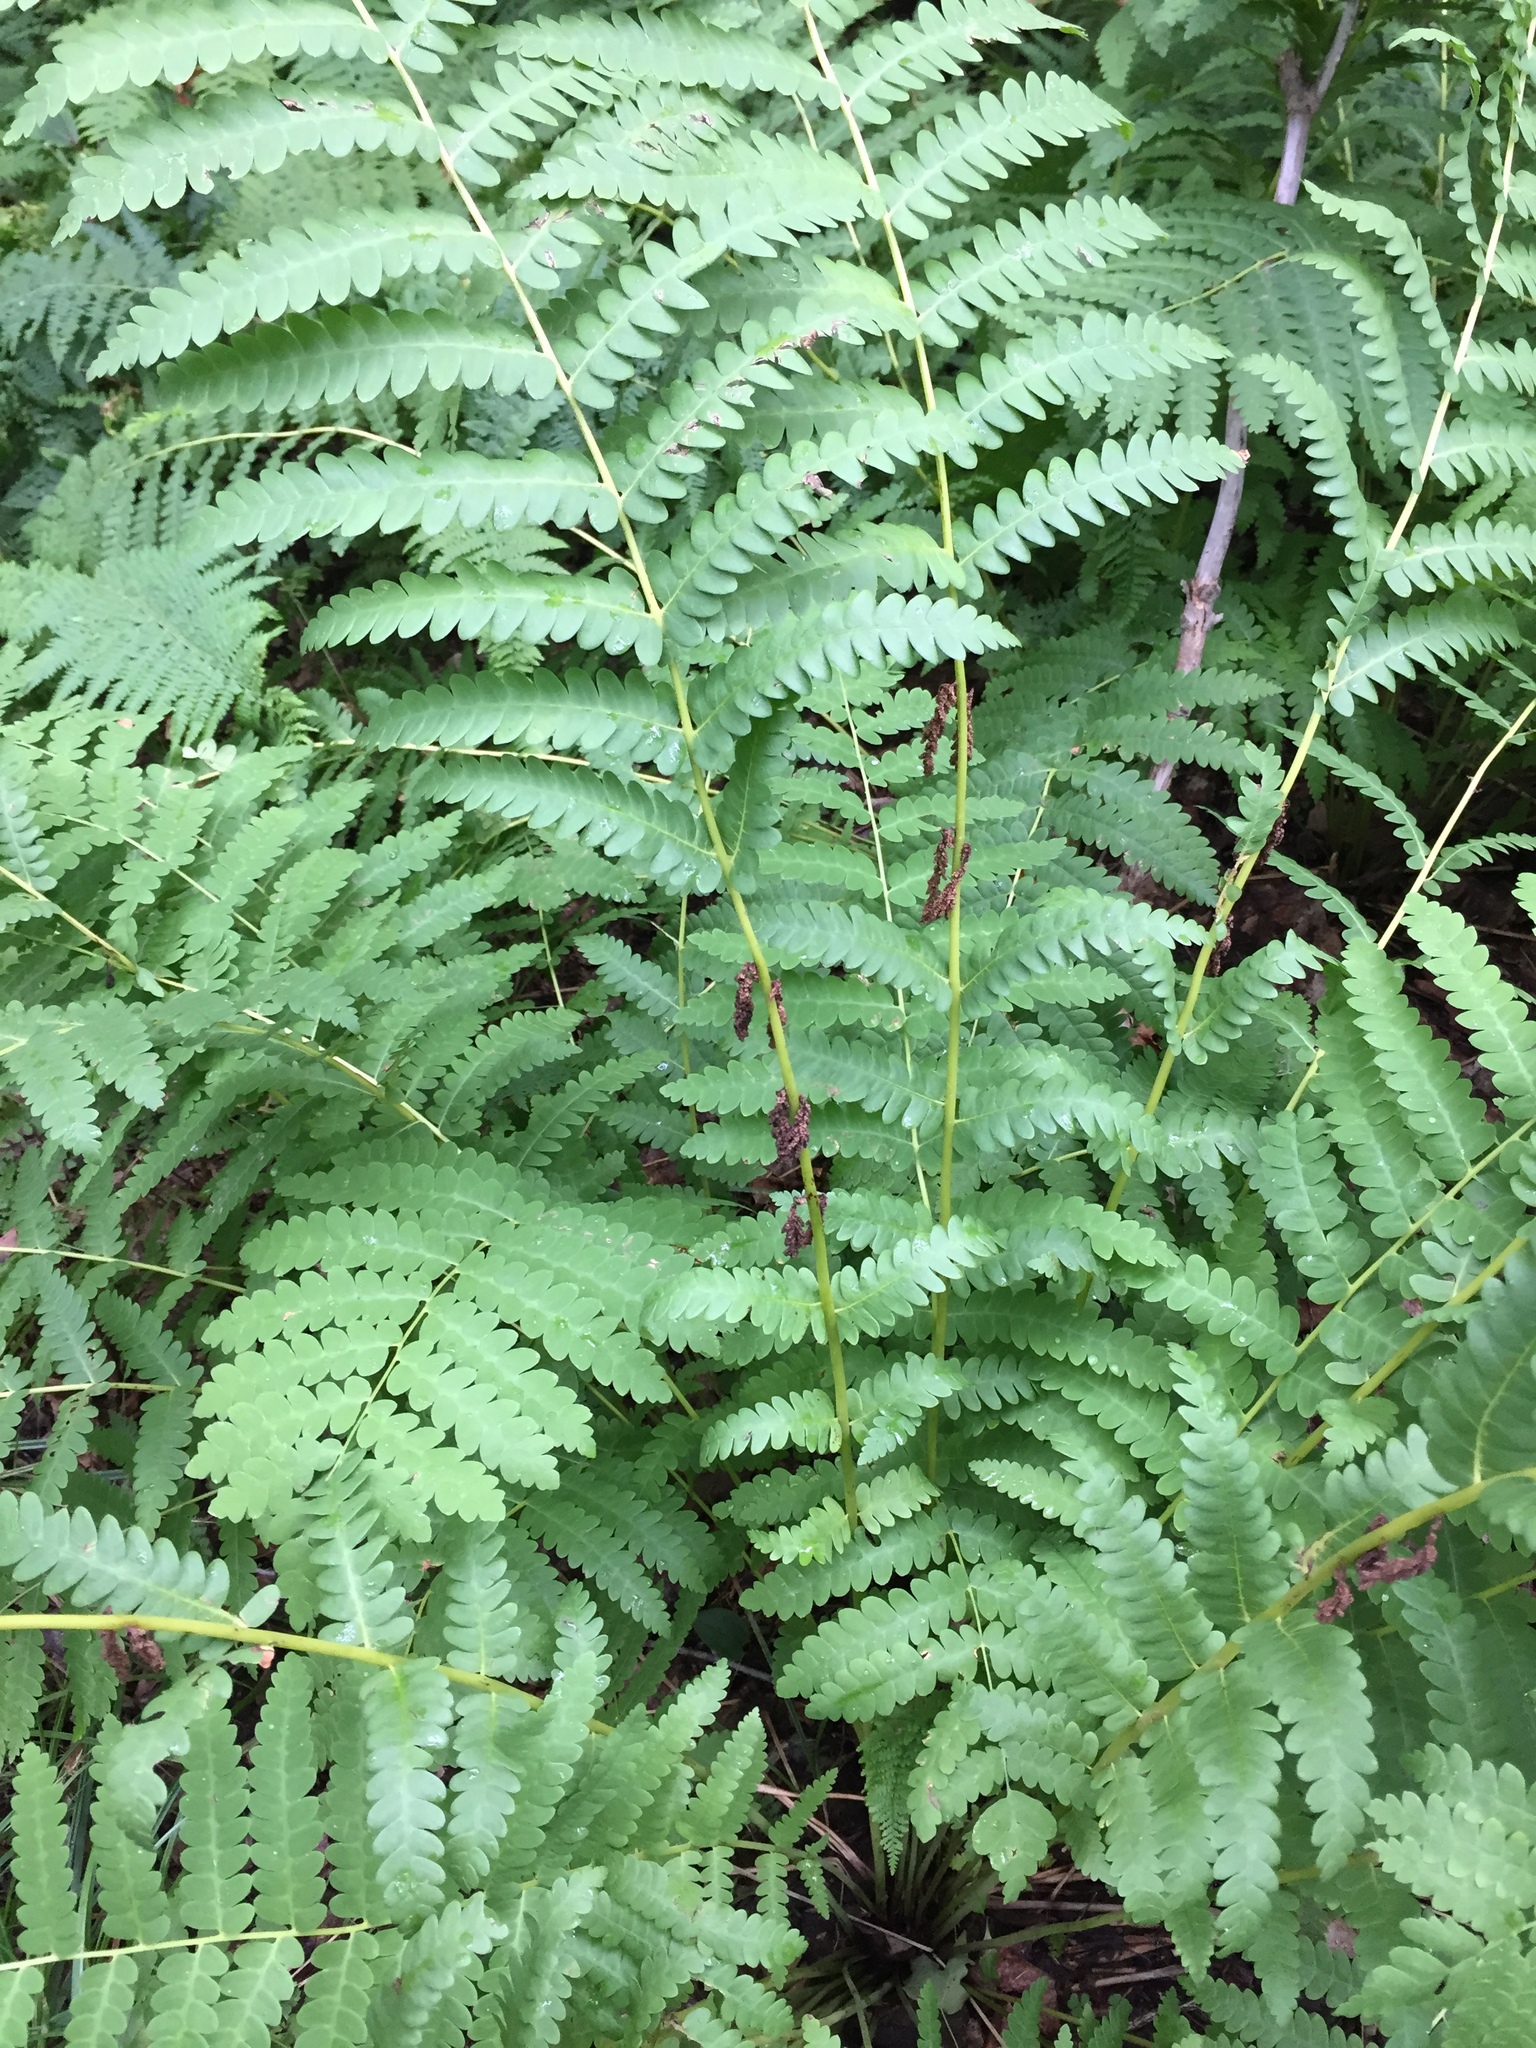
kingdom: Plantae
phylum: Tracheophyta
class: Polypodiopsida
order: Osmundales
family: Osmundaceae
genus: Claytosmunda
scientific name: Claytosmunda claytoniana
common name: Clayton's fern
